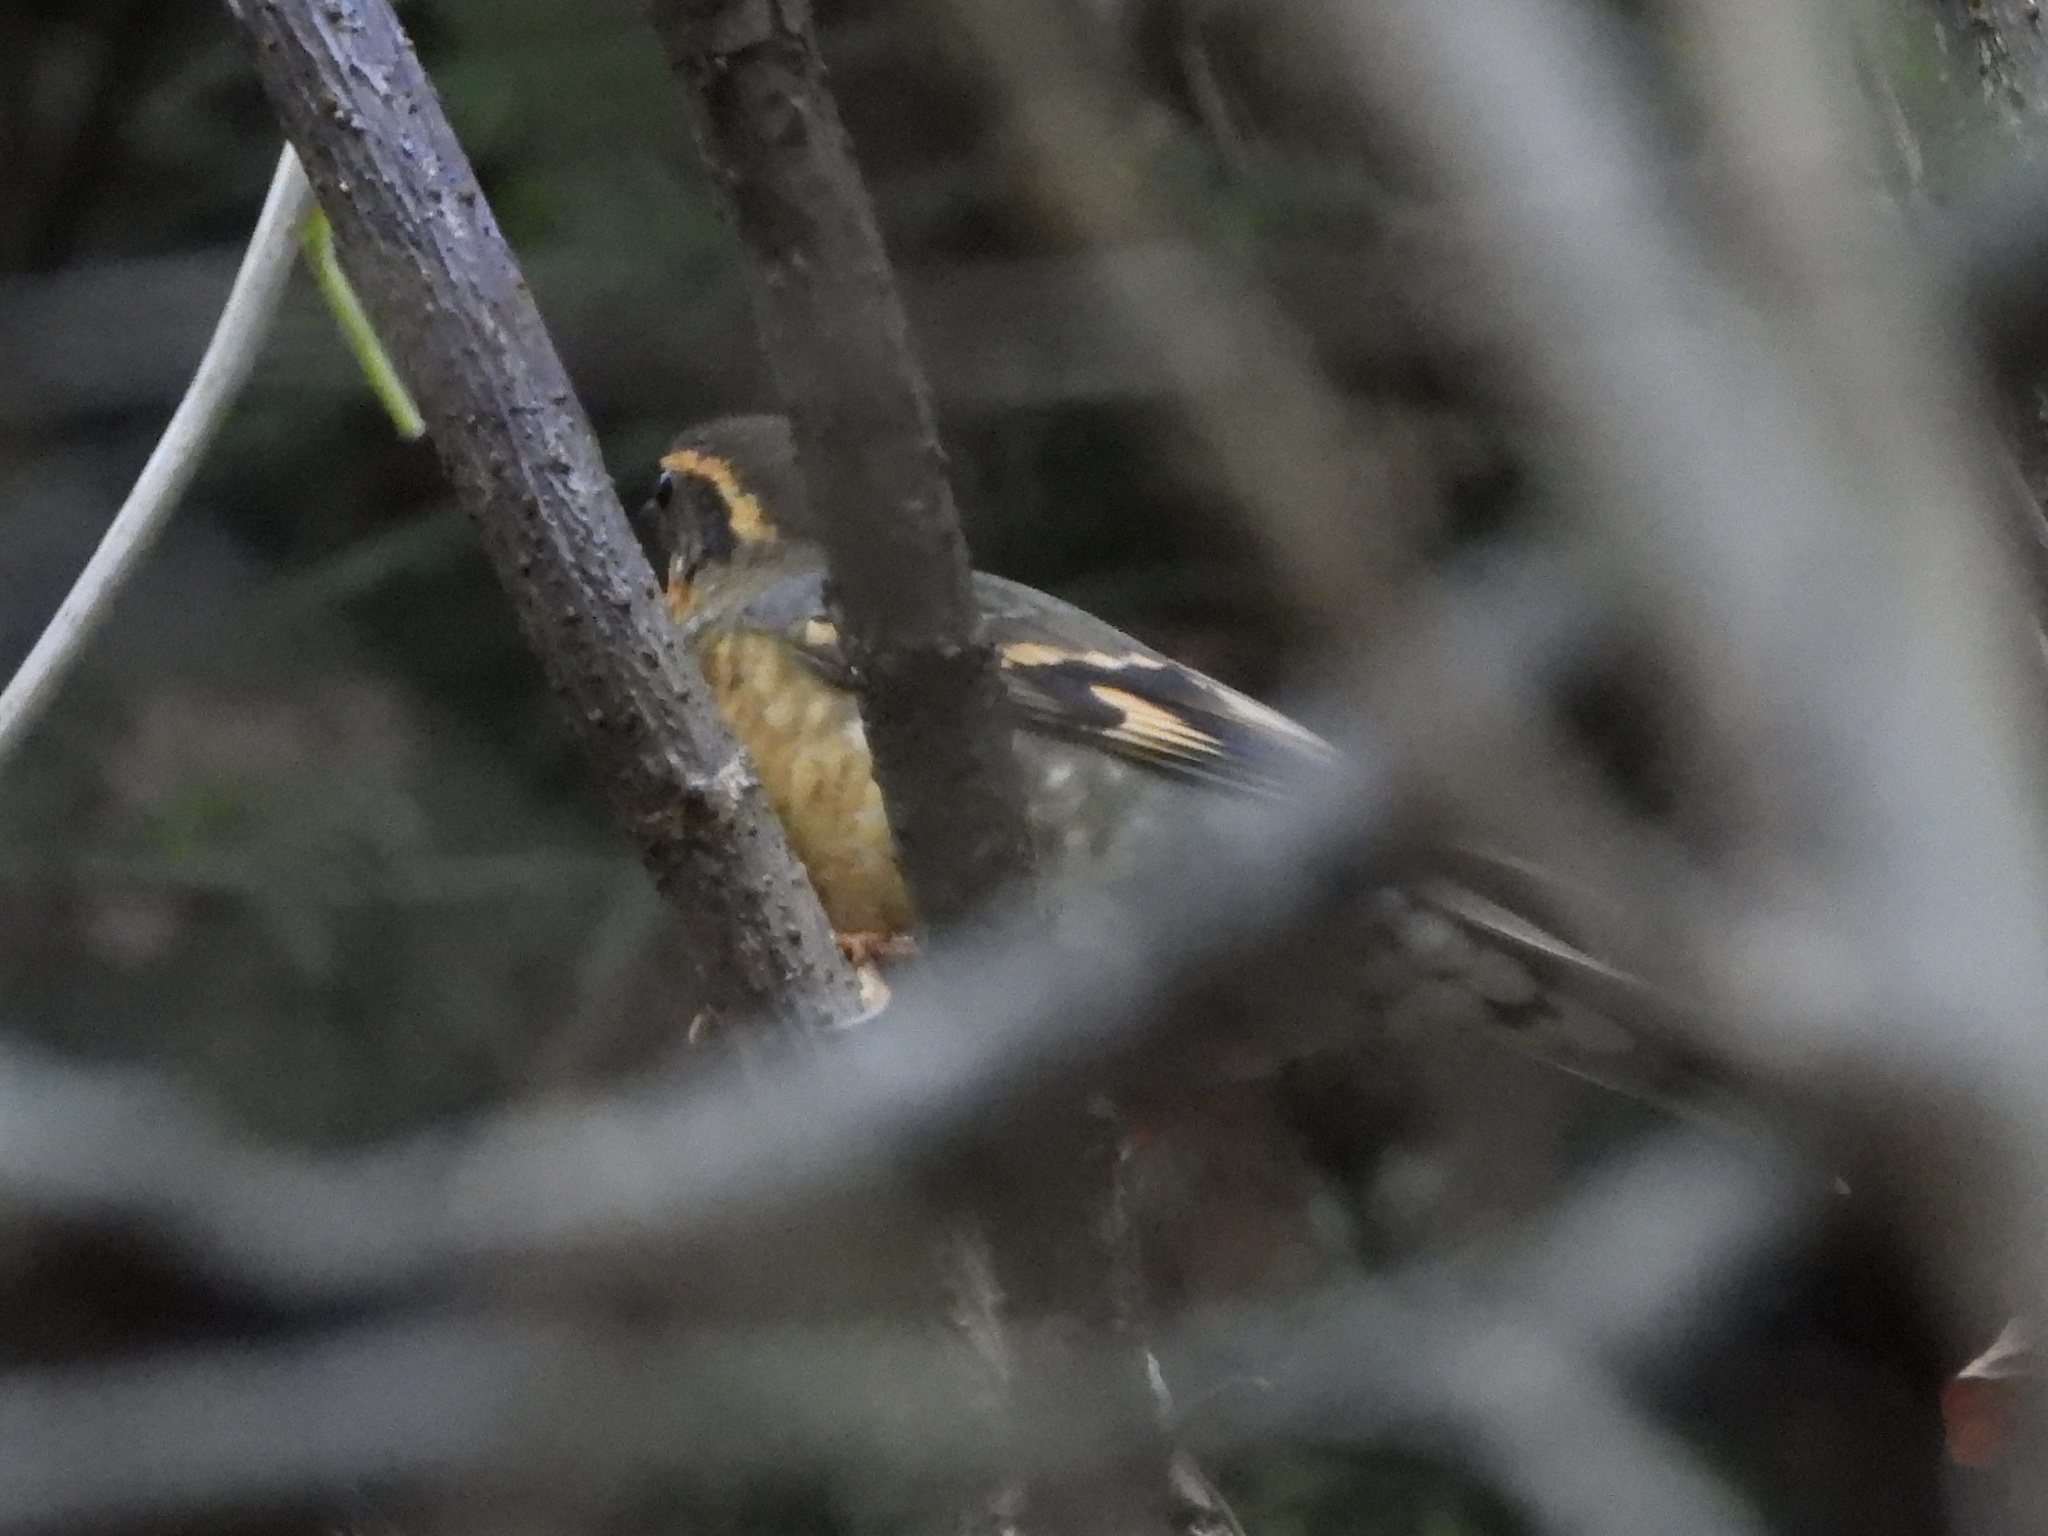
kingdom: Animalia
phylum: Chordata
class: Aves
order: Passeriformes
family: Turdidae
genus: Ixoreus
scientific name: Ixoreus naevius
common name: Varied thrush
